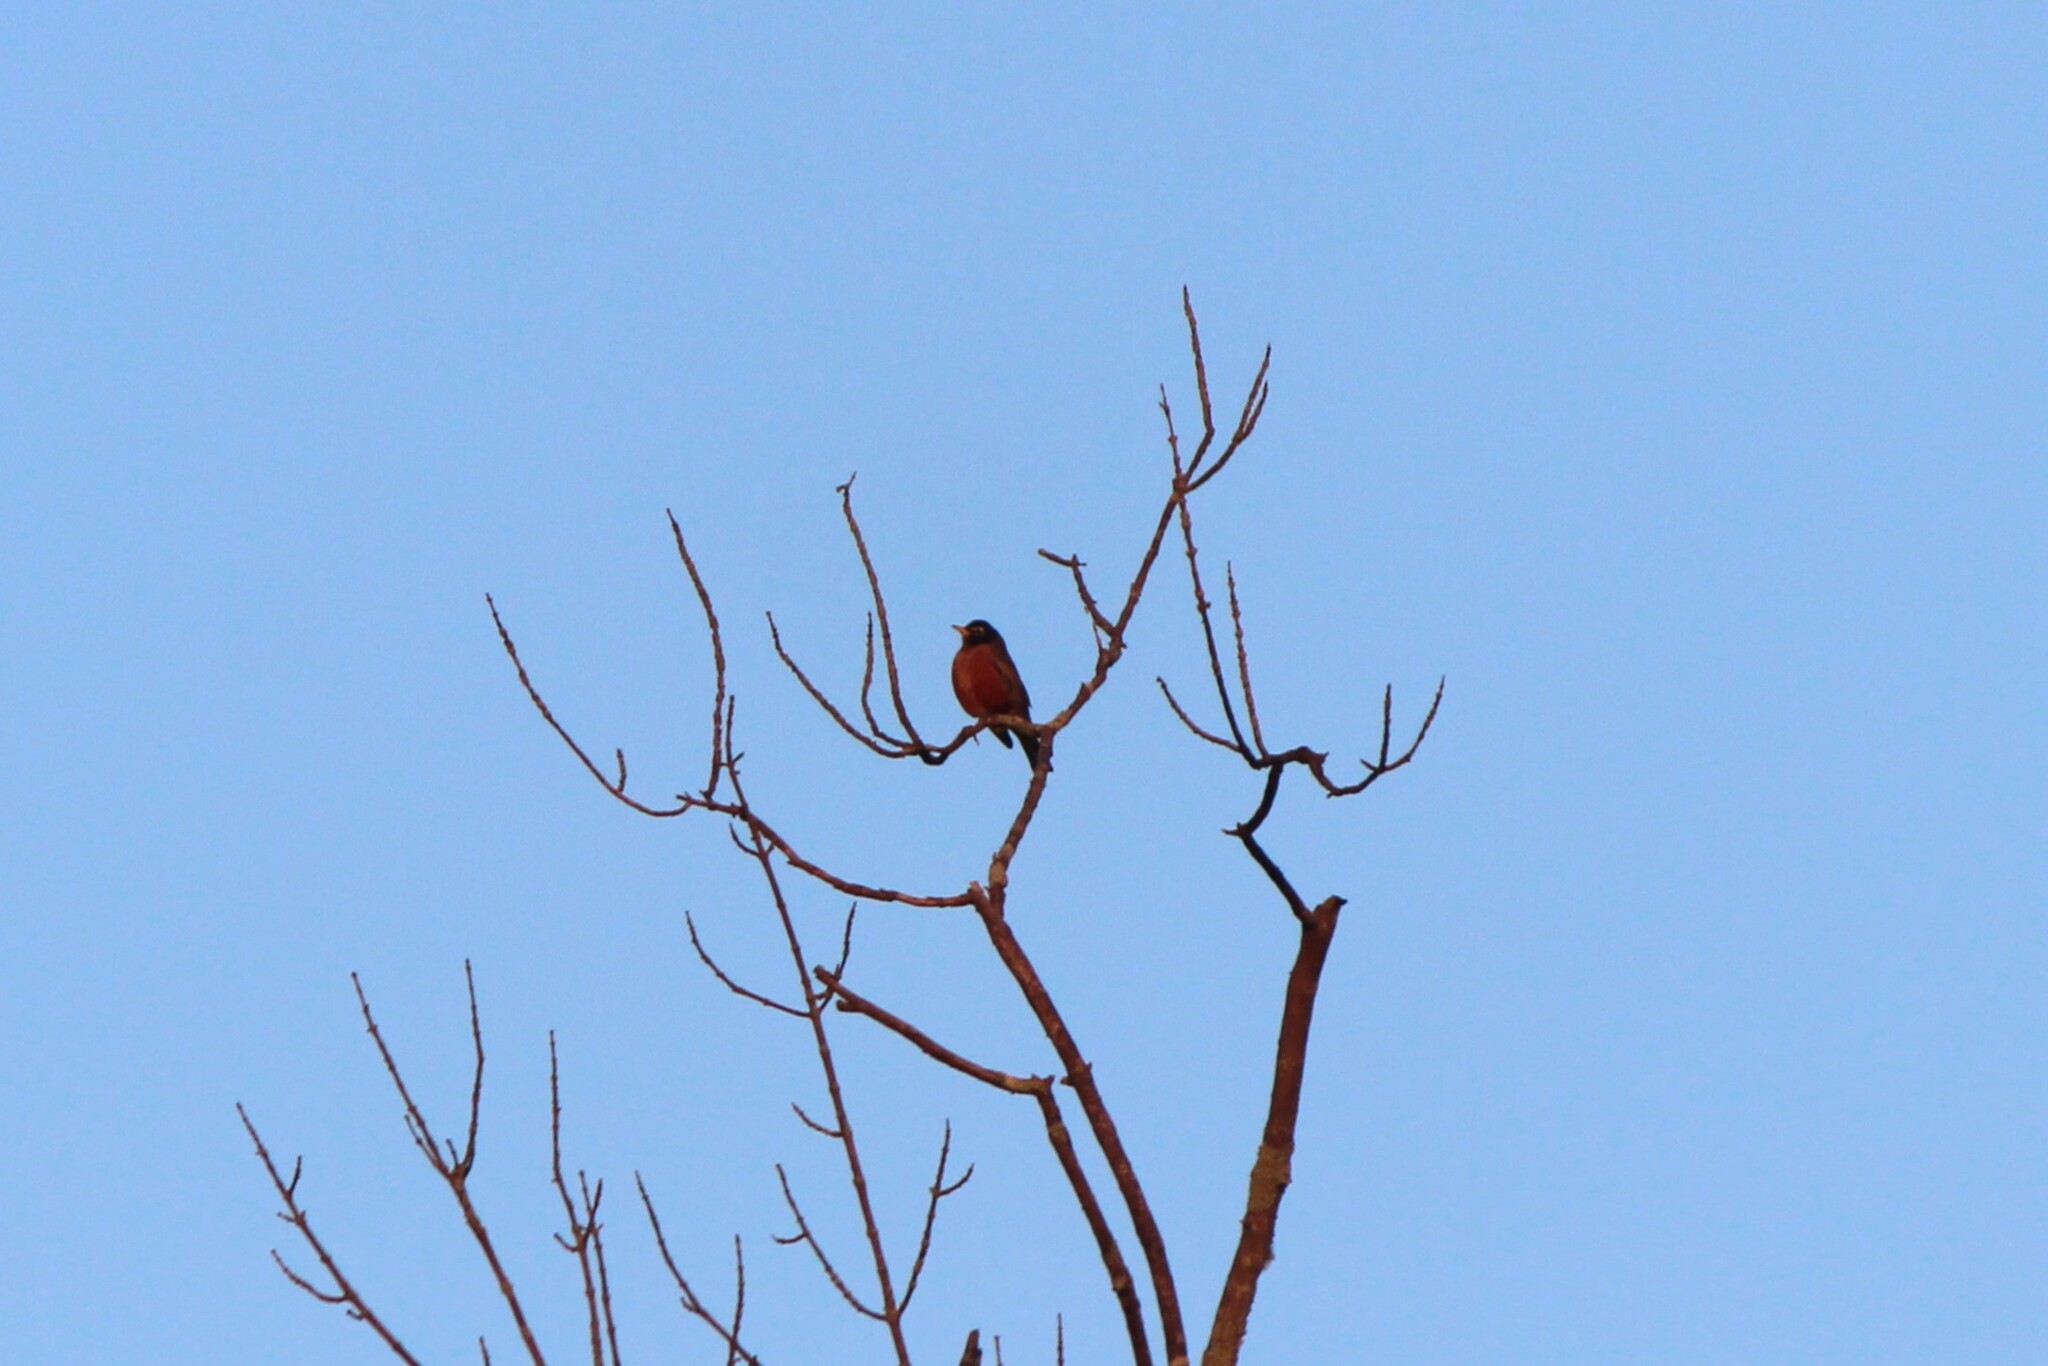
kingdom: Animalia
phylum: Chordata
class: Aves
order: Passeriformes
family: Turdidae
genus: Turdus
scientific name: Turdus migratorius
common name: American robin
